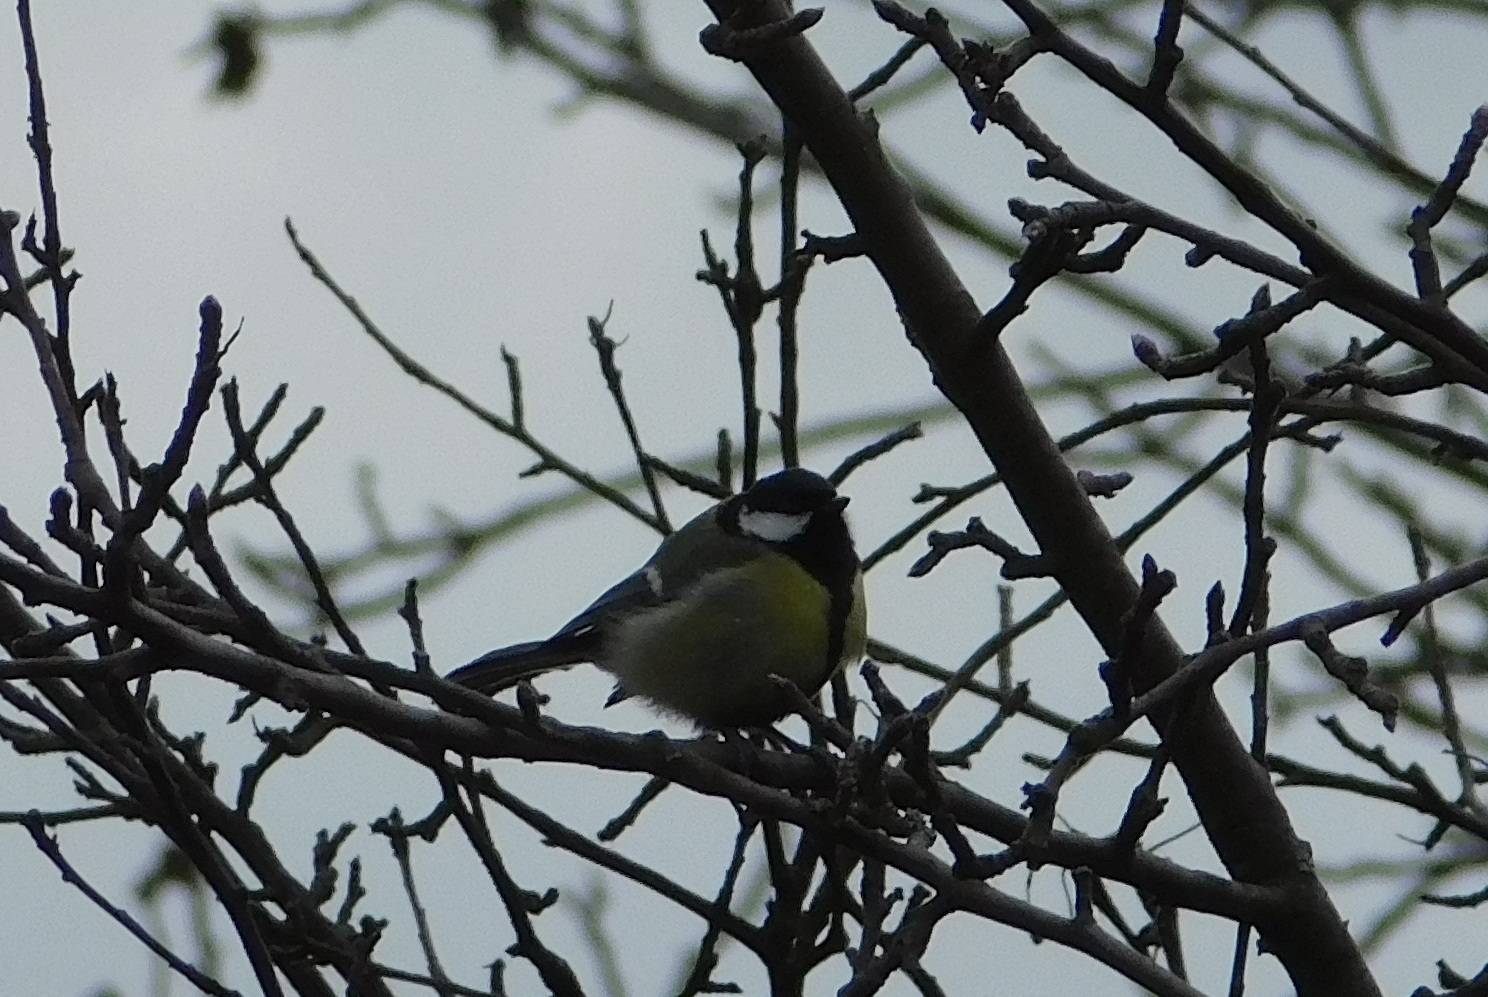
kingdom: Animalia
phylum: Chordata
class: Aves
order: Passeriformes
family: Paridae
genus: Parus
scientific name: Parus major
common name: Great tit
